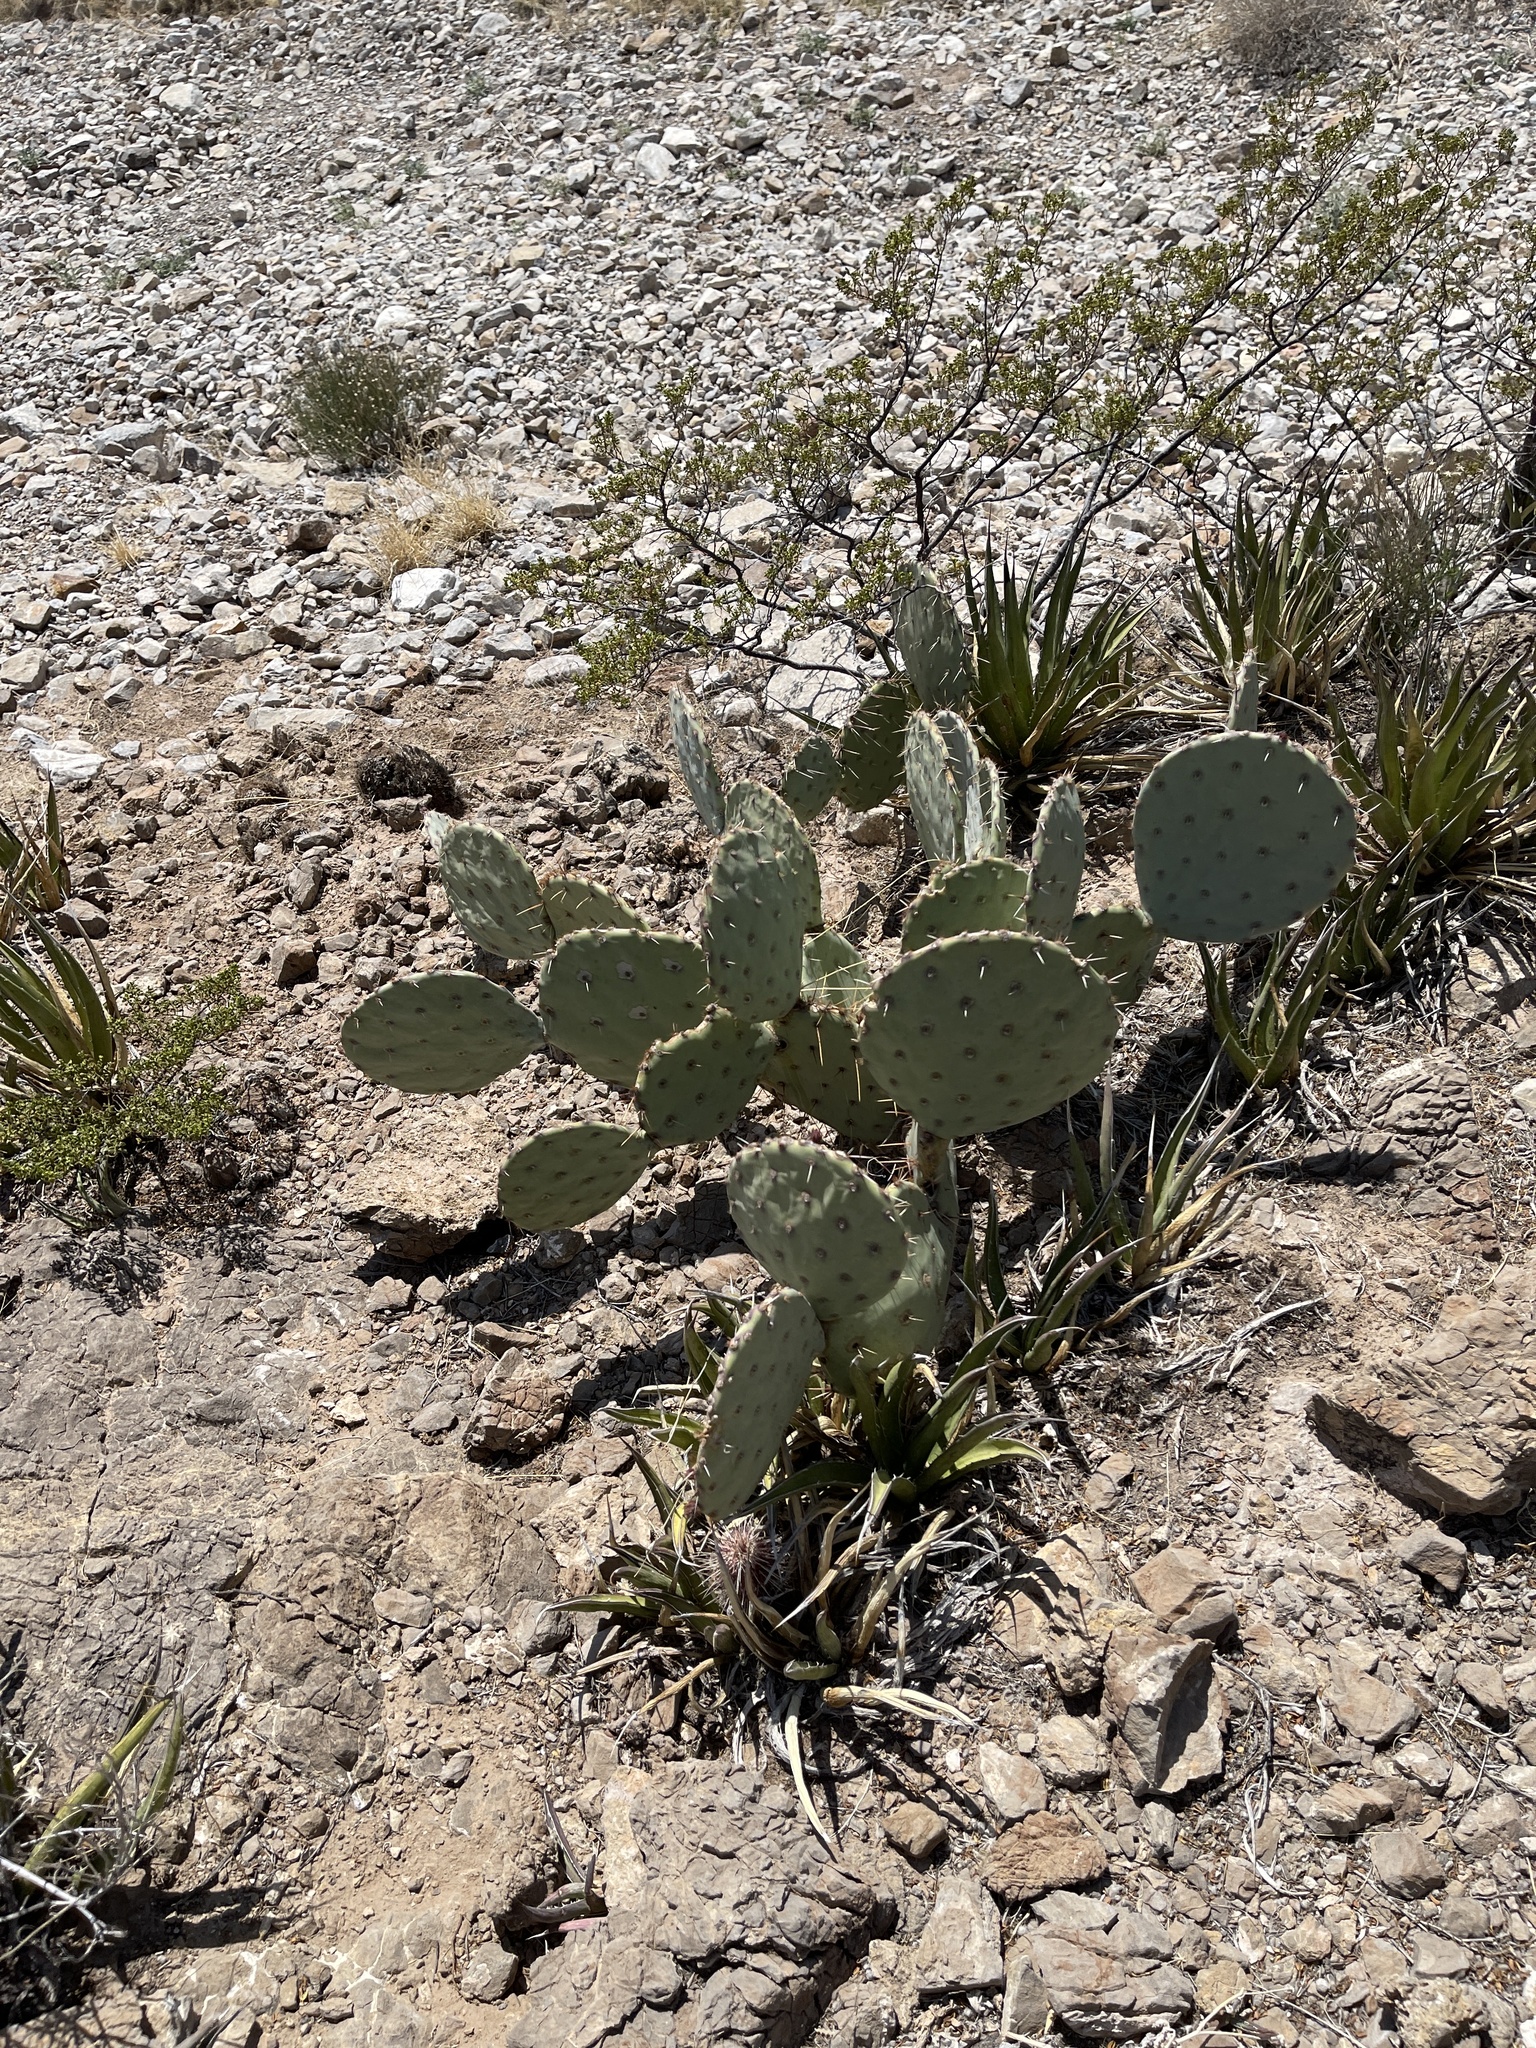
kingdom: Plantae
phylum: Tracheophyta
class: Magnoliopsida
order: Caryophyllales
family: Cactaceae
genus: Opuntia
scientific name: Opuntia engelmannii
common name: Cactus-apple
